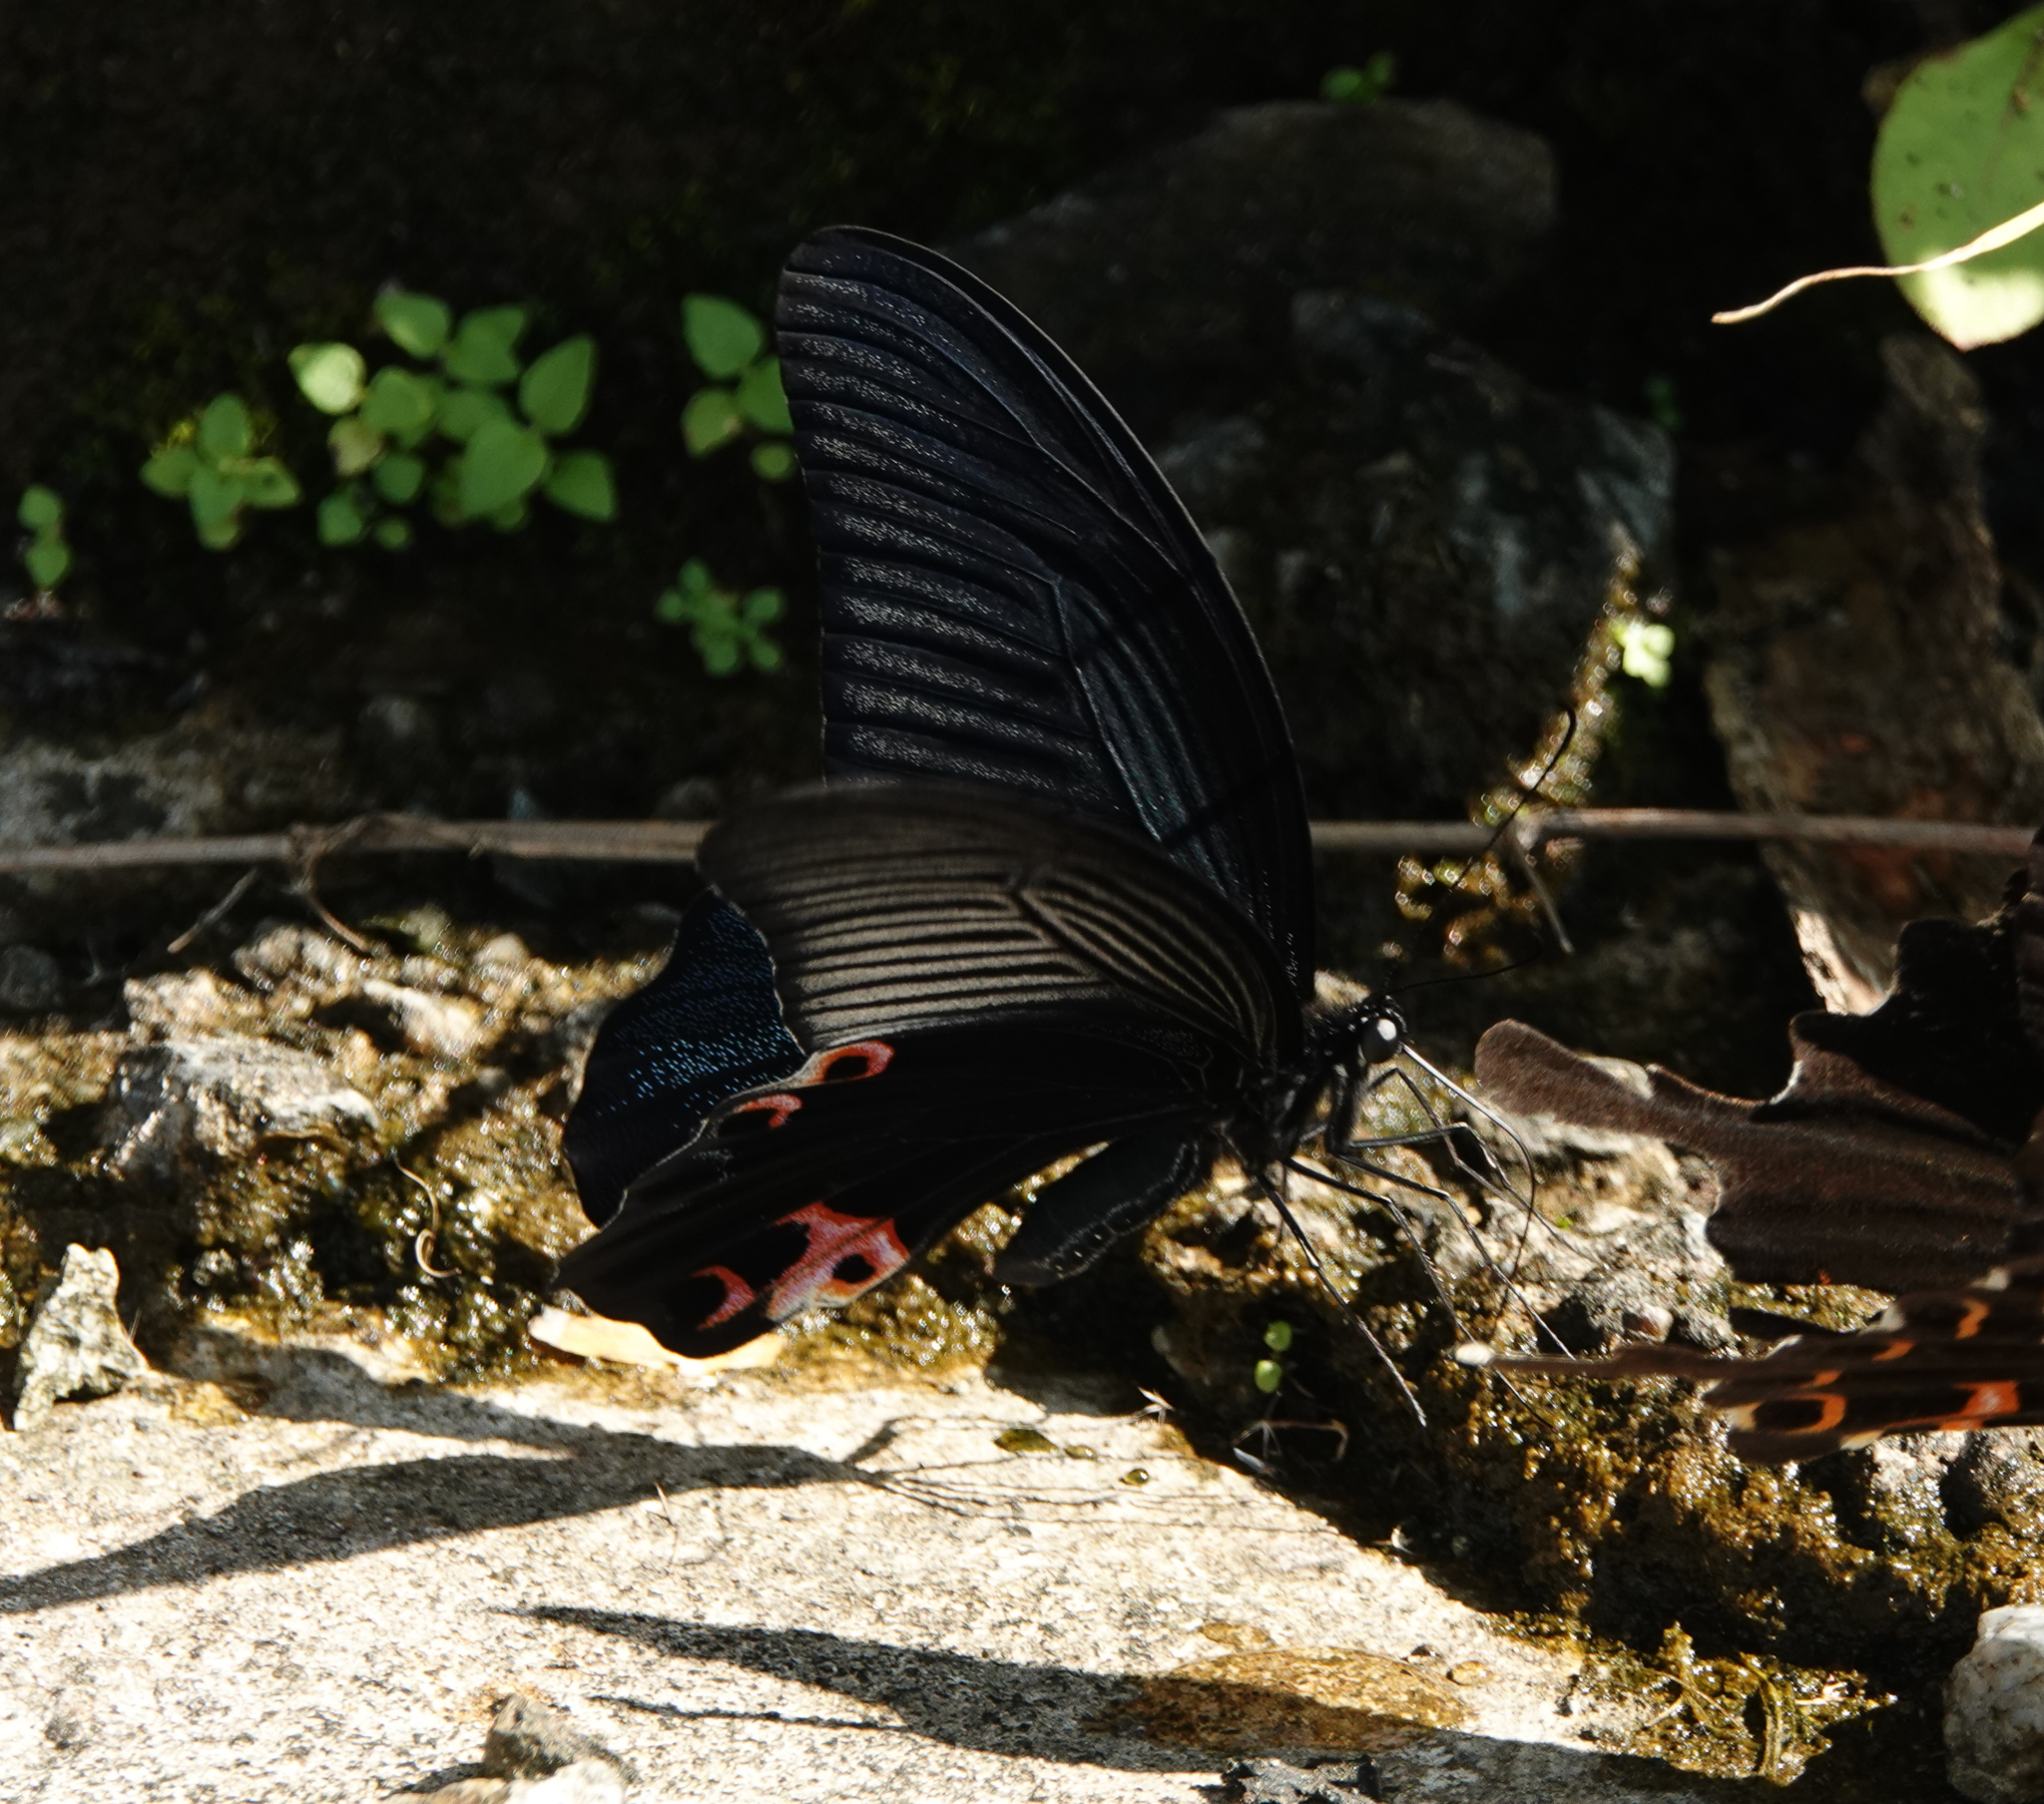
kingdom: Animalia
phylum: Arthropoda
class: Insecta
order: Lepidoptera
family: Papilionidae
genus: Papilio
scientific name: Papilio protenor
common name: Spangle
